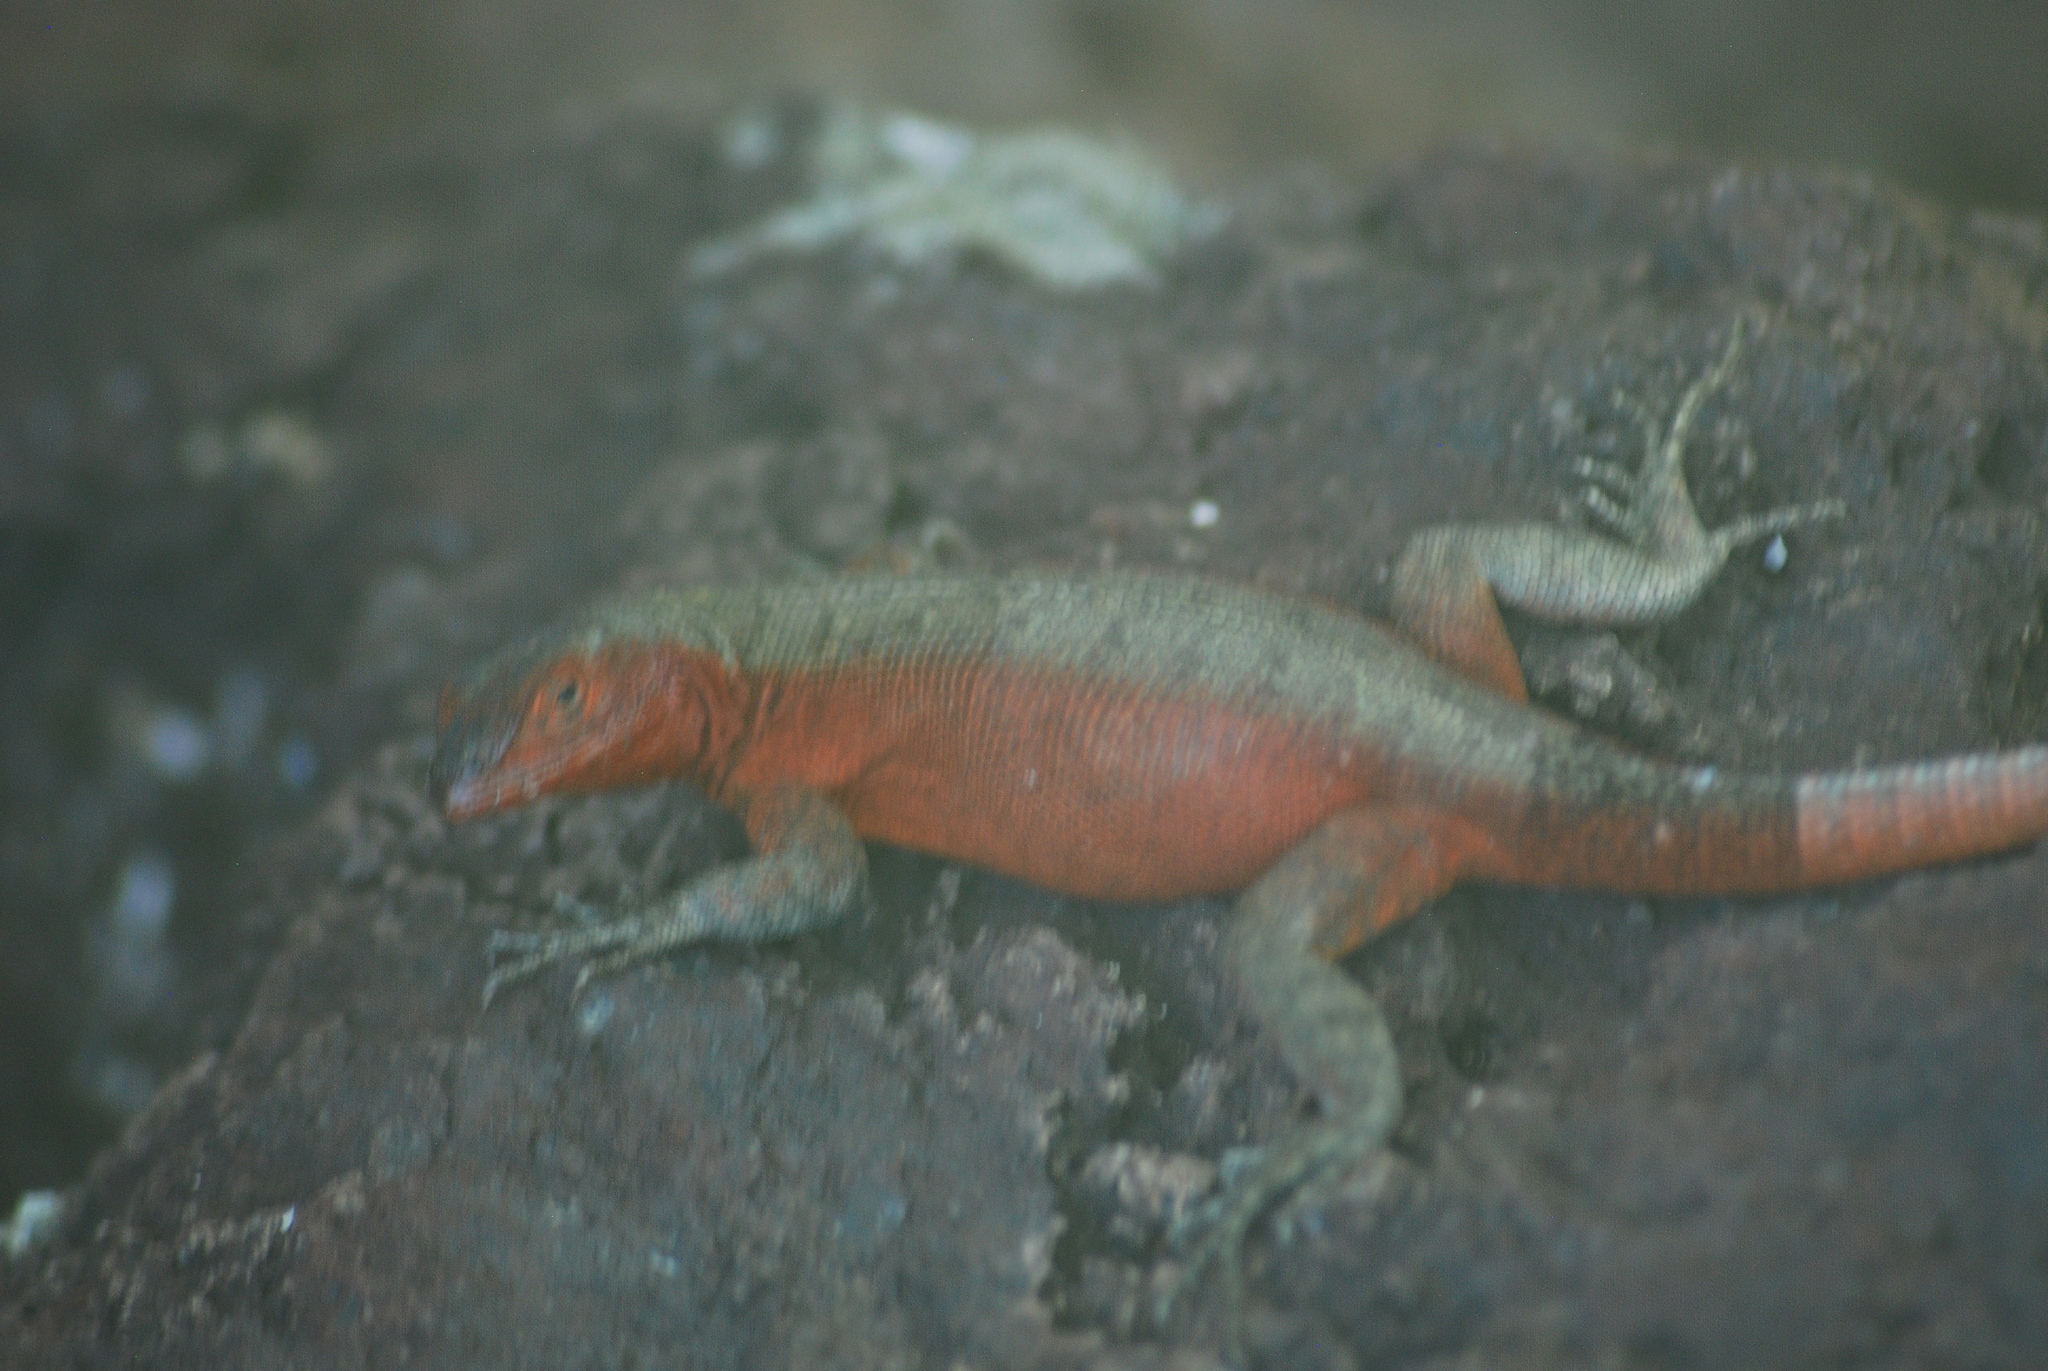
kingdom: Animalia
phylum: Chordata
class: Squamata
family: Tropiduridae
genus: Microlophus
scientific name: Microlophus duncanensis
